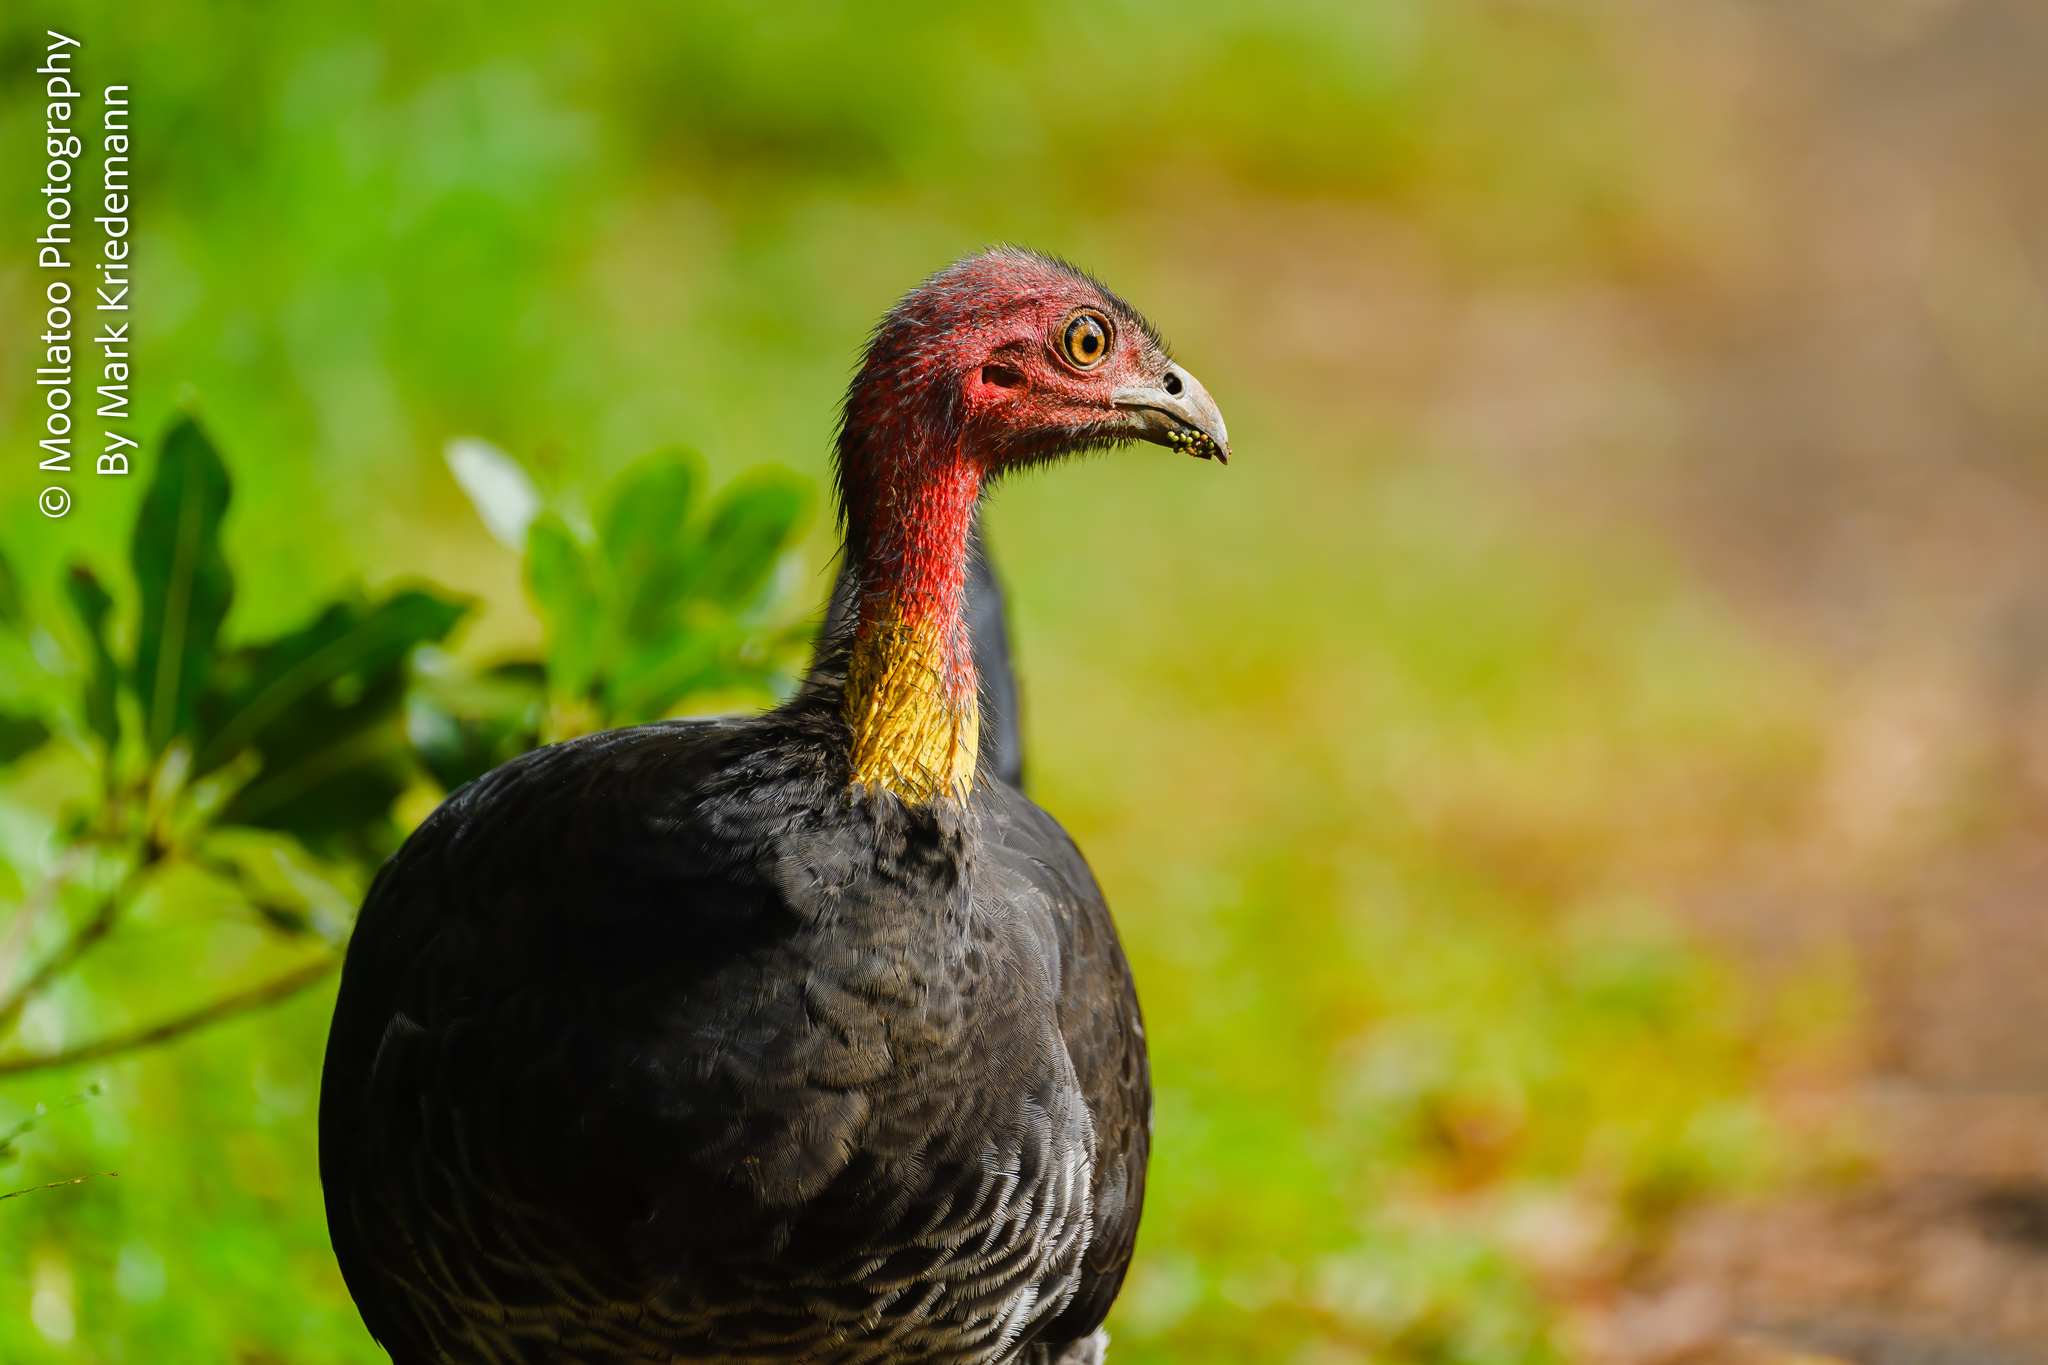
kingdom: Animalia
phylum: Chordata
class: Aves
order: Galliformes
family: Megapodiidae
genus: Alectura
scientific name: Alectura lathami
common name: Australian brushturkey
